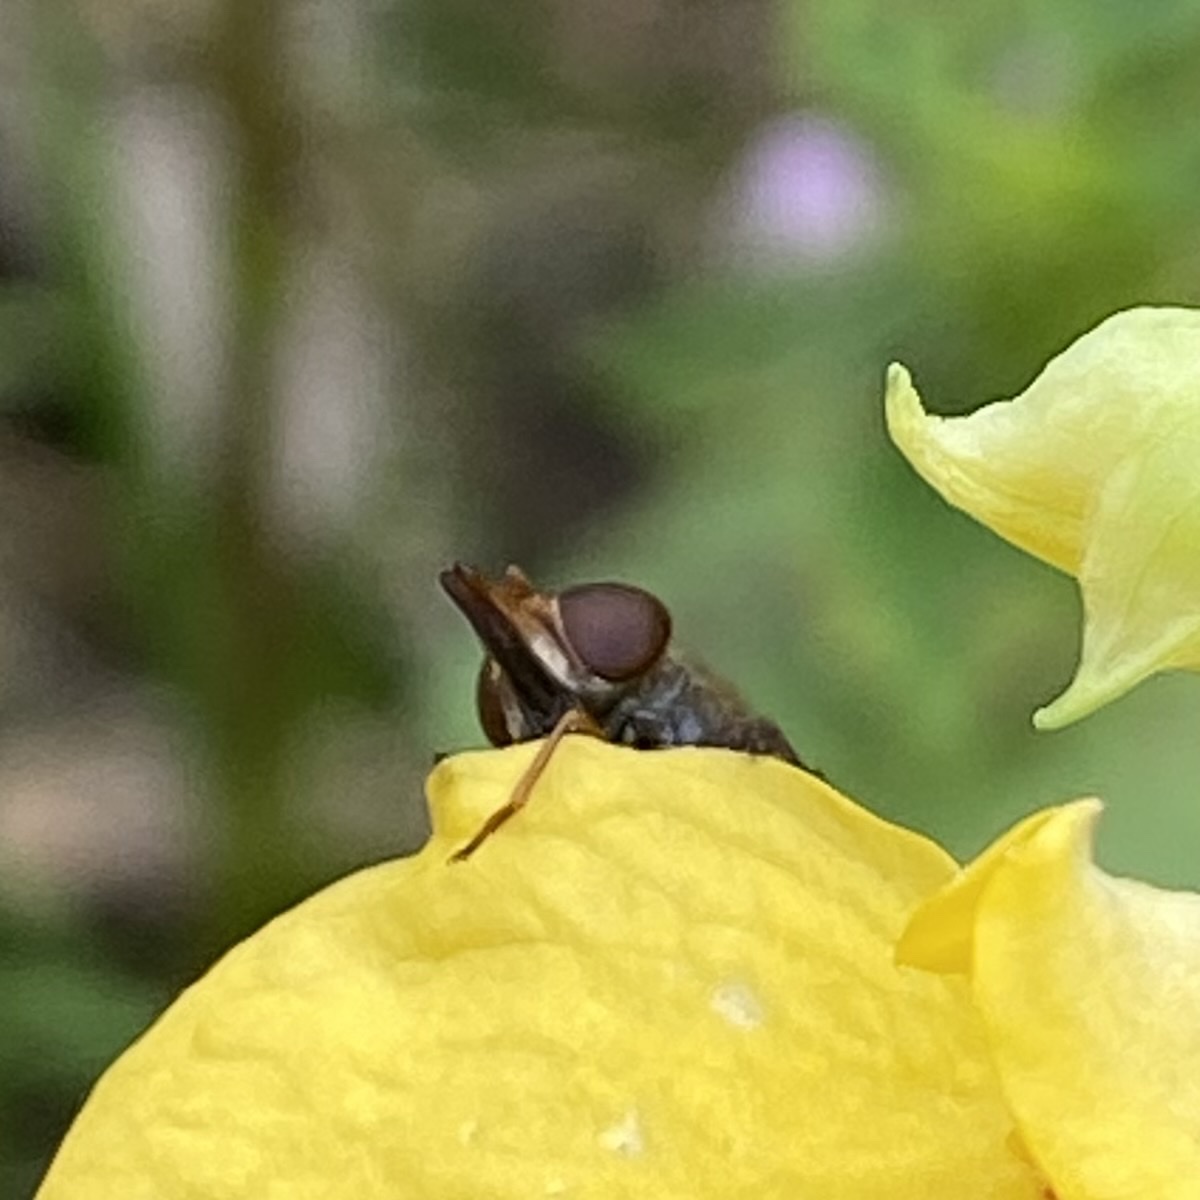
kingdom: Animalia
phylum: Arthropoda
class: Insecta
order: Diptera
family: Syrphidae
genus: Rhingia
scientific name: Rhingia campestris
